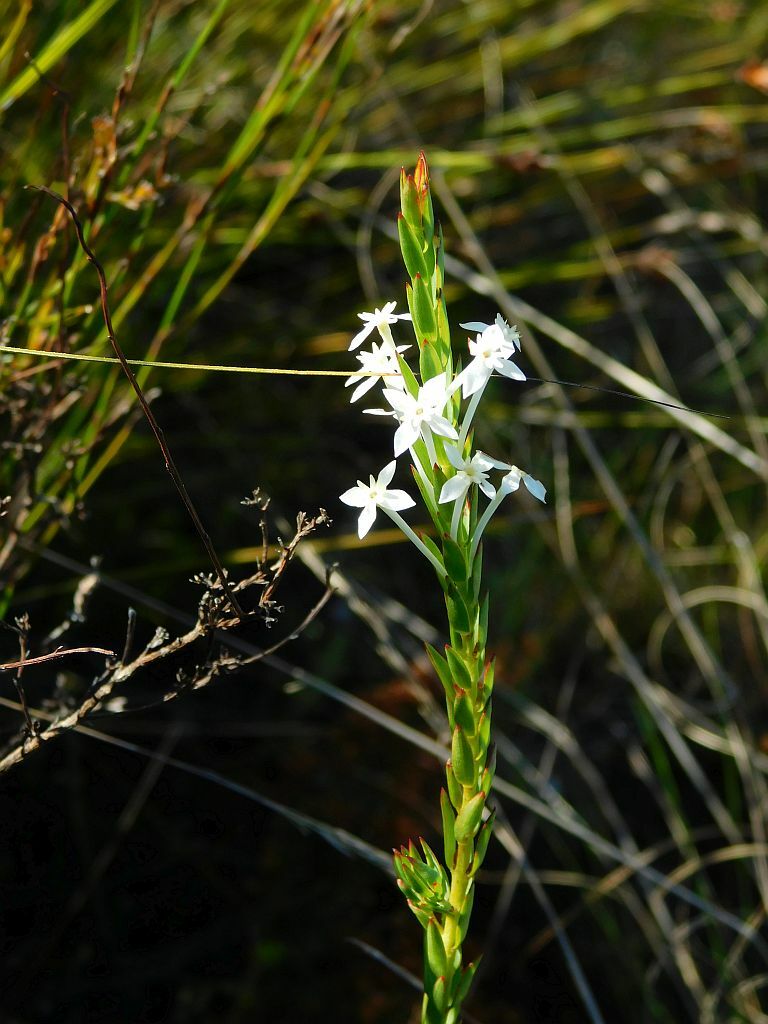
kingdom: Plantae
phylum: Tracheophyta
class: Magnoliopsida
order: Malvales
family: Thymelaeaceae
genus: Struthiola
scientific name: Struthiola myrsinites
